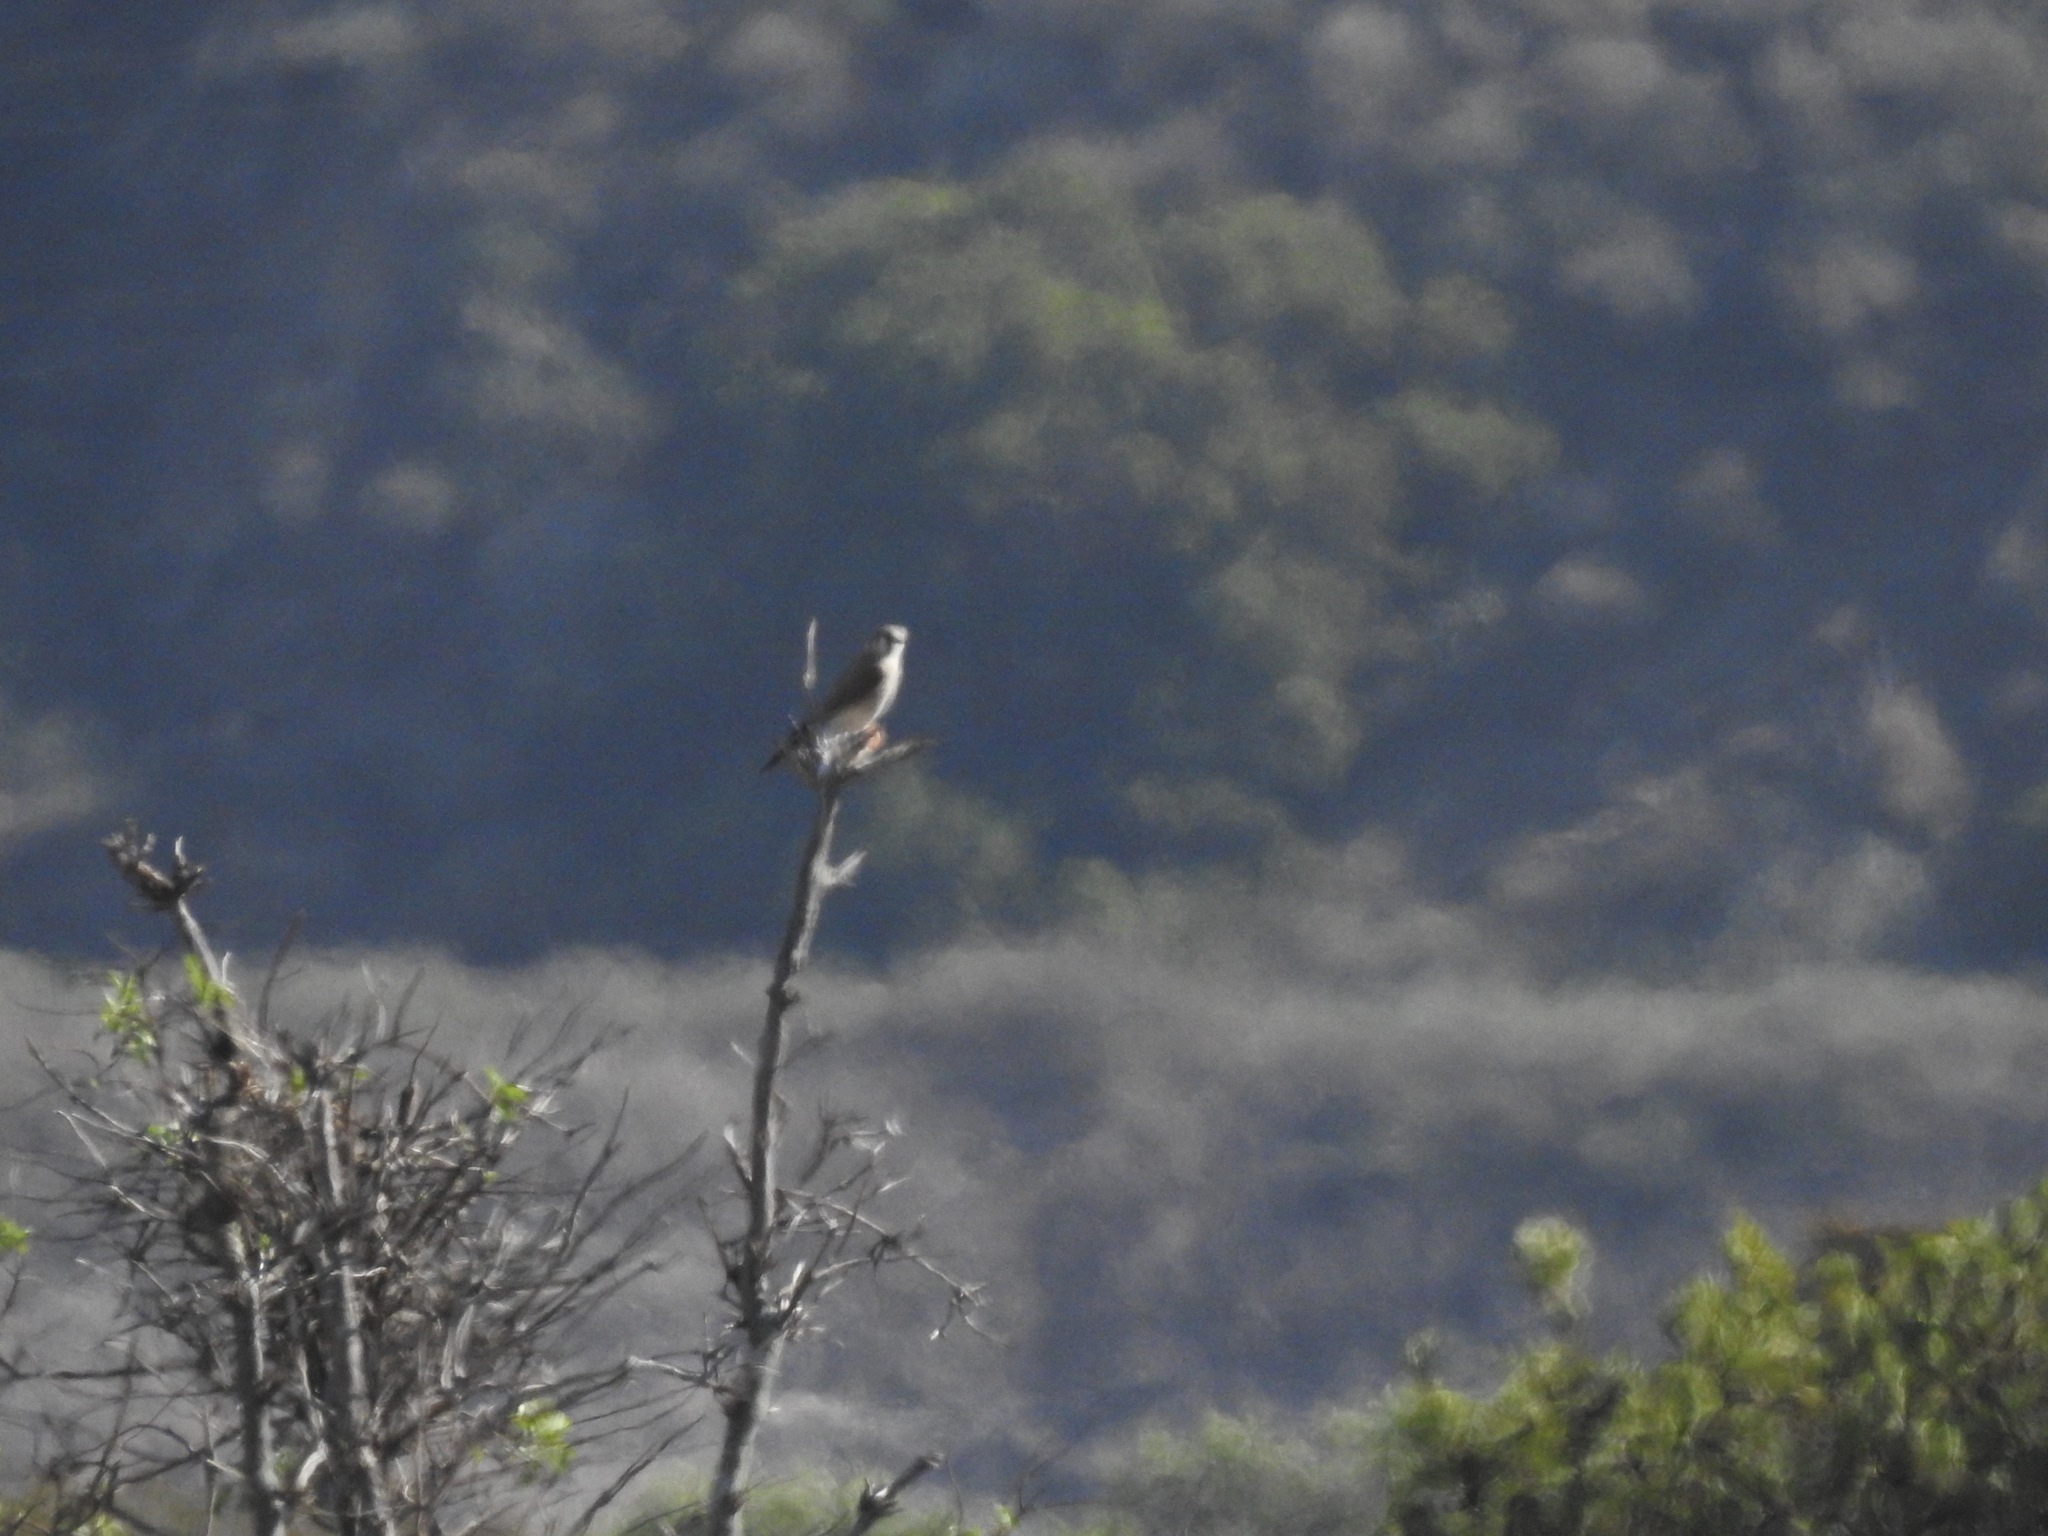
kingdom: Animalia
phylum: Chordata
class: Aves
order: Falconiformes
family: Falconidae
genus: Falco
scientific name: Falco sparverius
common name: American kestrel
